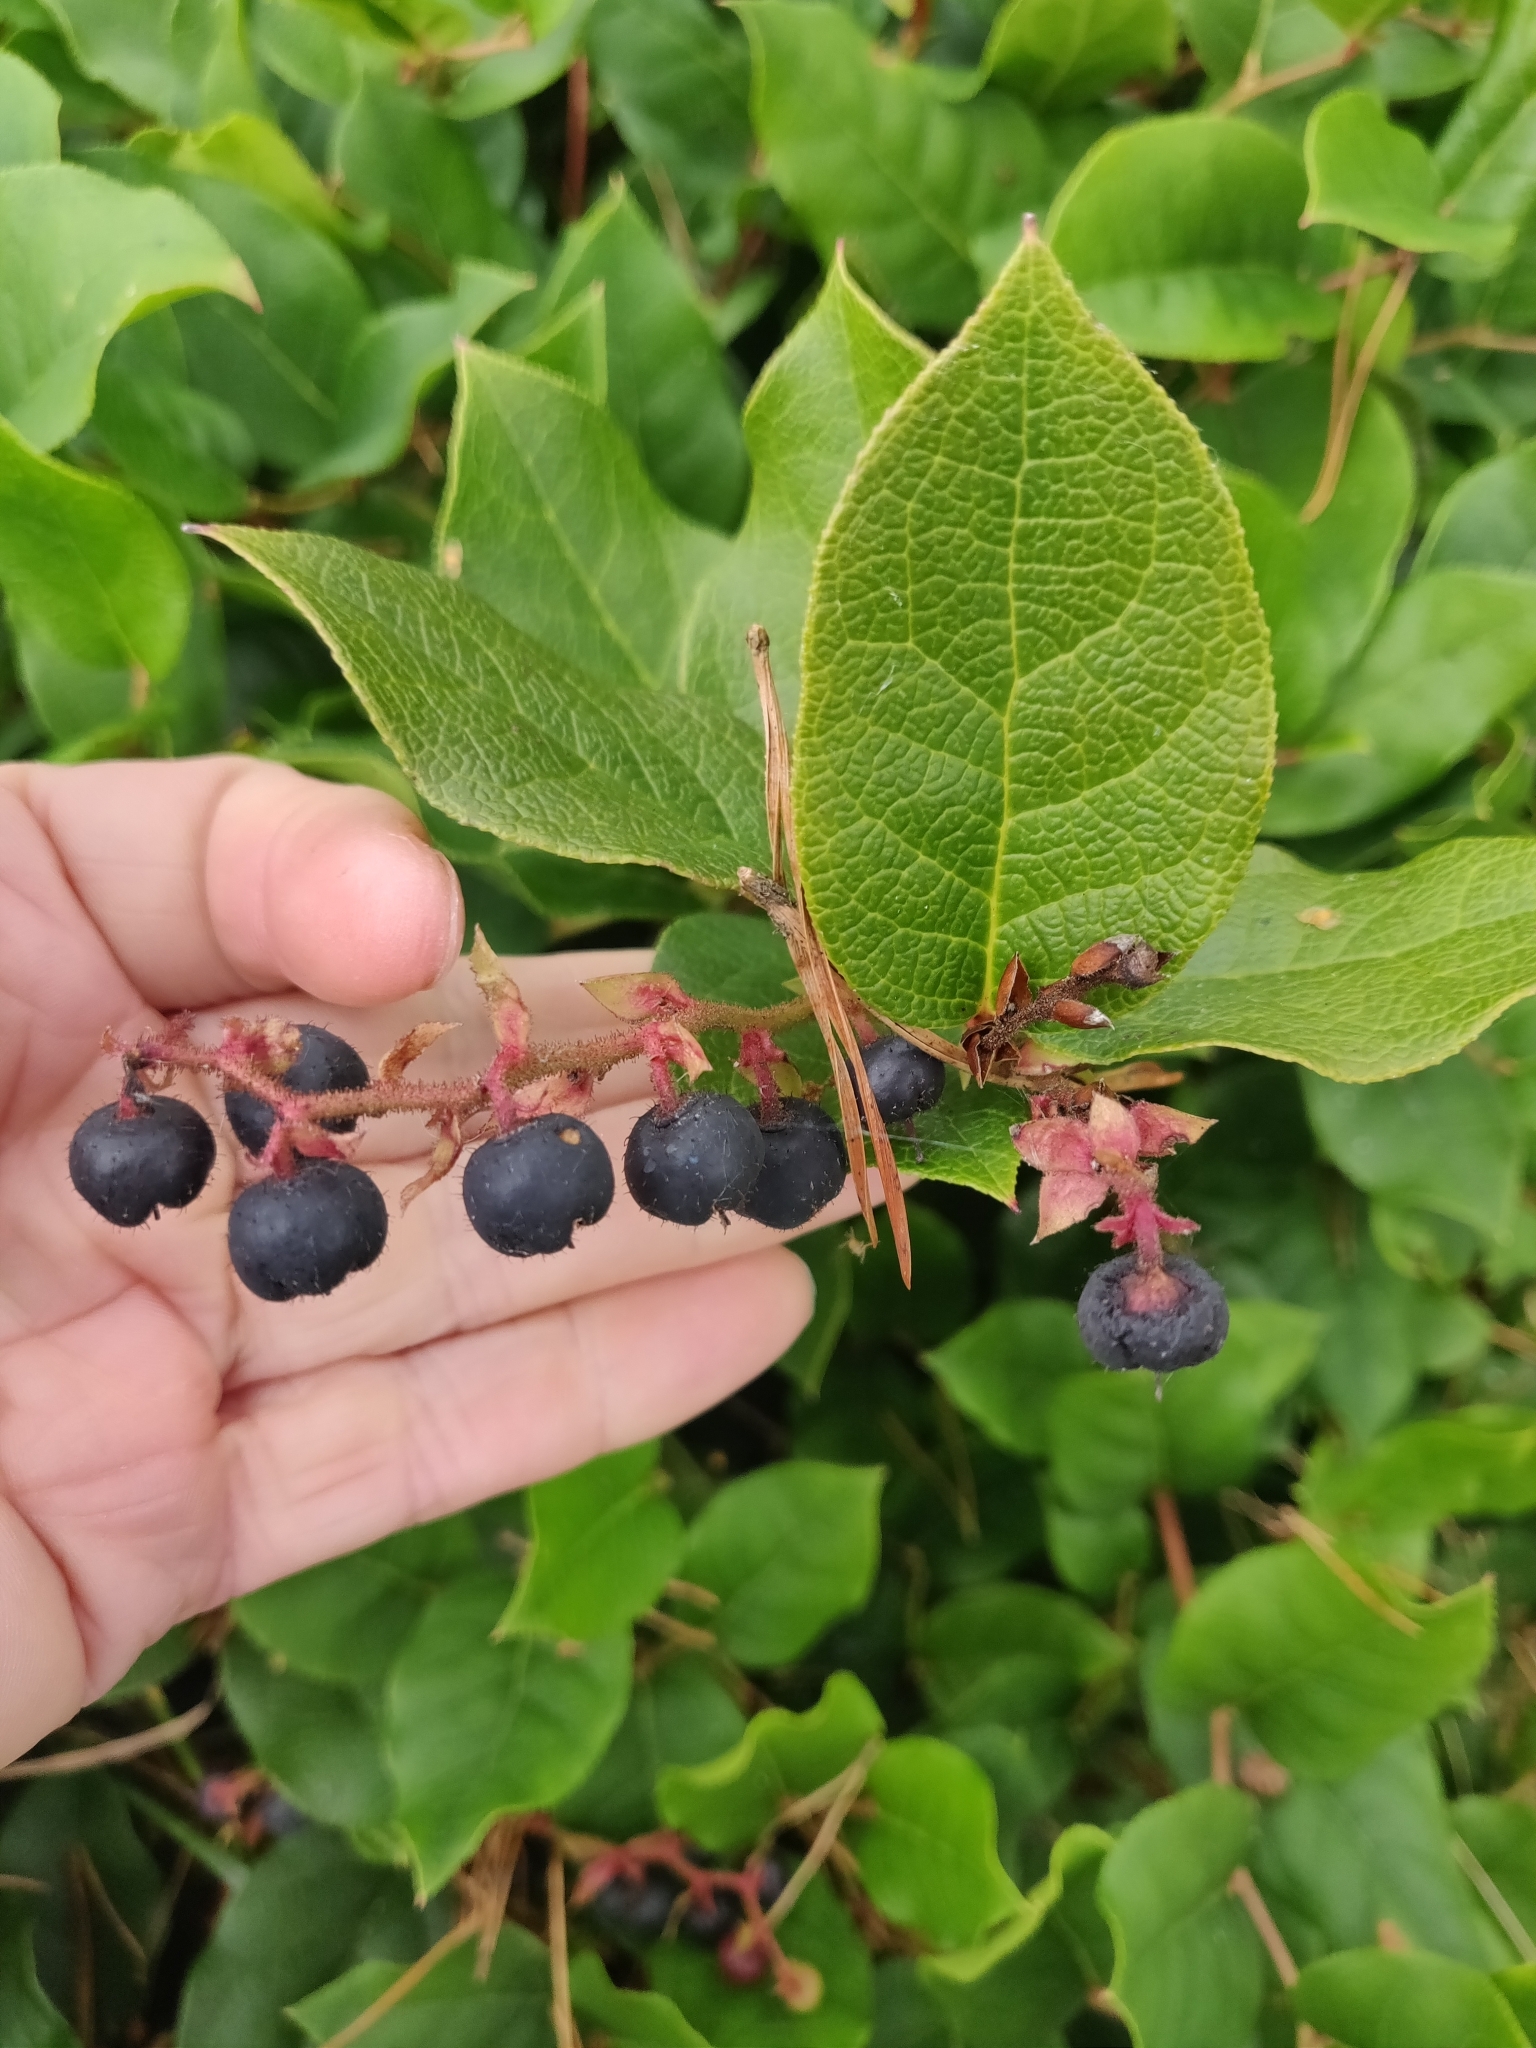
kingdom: Plantae
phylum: Tracheophyta
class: Magnoliopsida
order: Ericales
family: Ericaceae
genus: Gaultheria
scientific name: Gaultheria shallon
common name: Shallon
